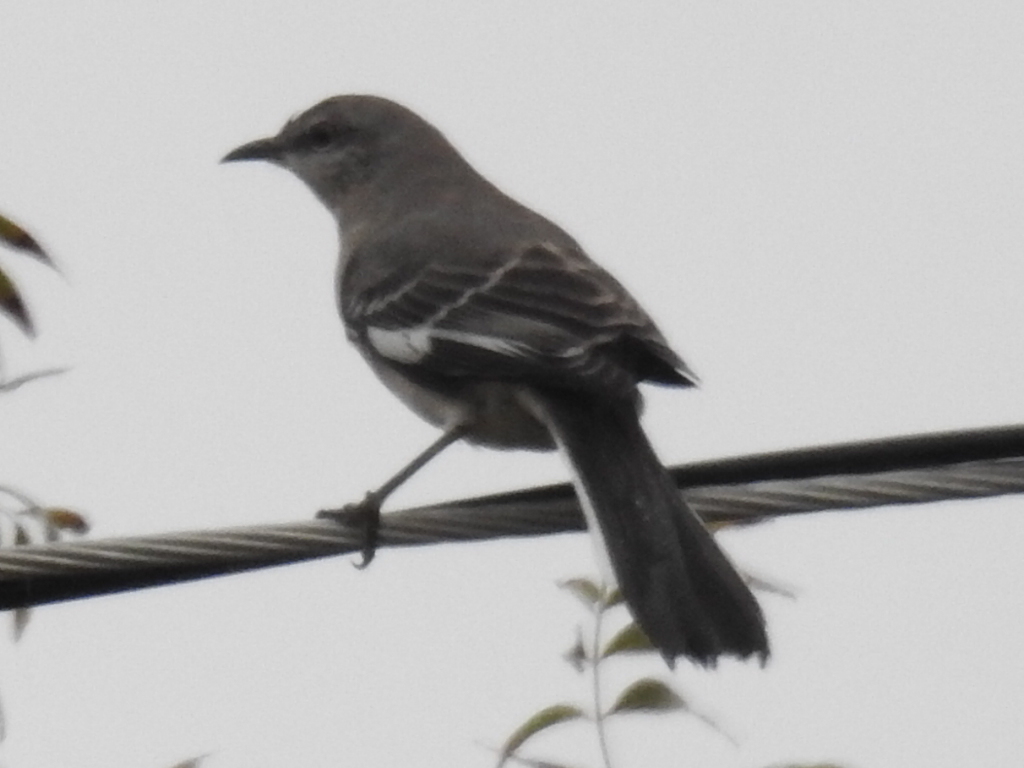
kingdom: Animalia
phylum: Chordata
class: Aves
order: Passeriformes
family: Mimidae
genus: Mimus
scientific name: Mimus polyglottos
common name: Northern mockingbird
